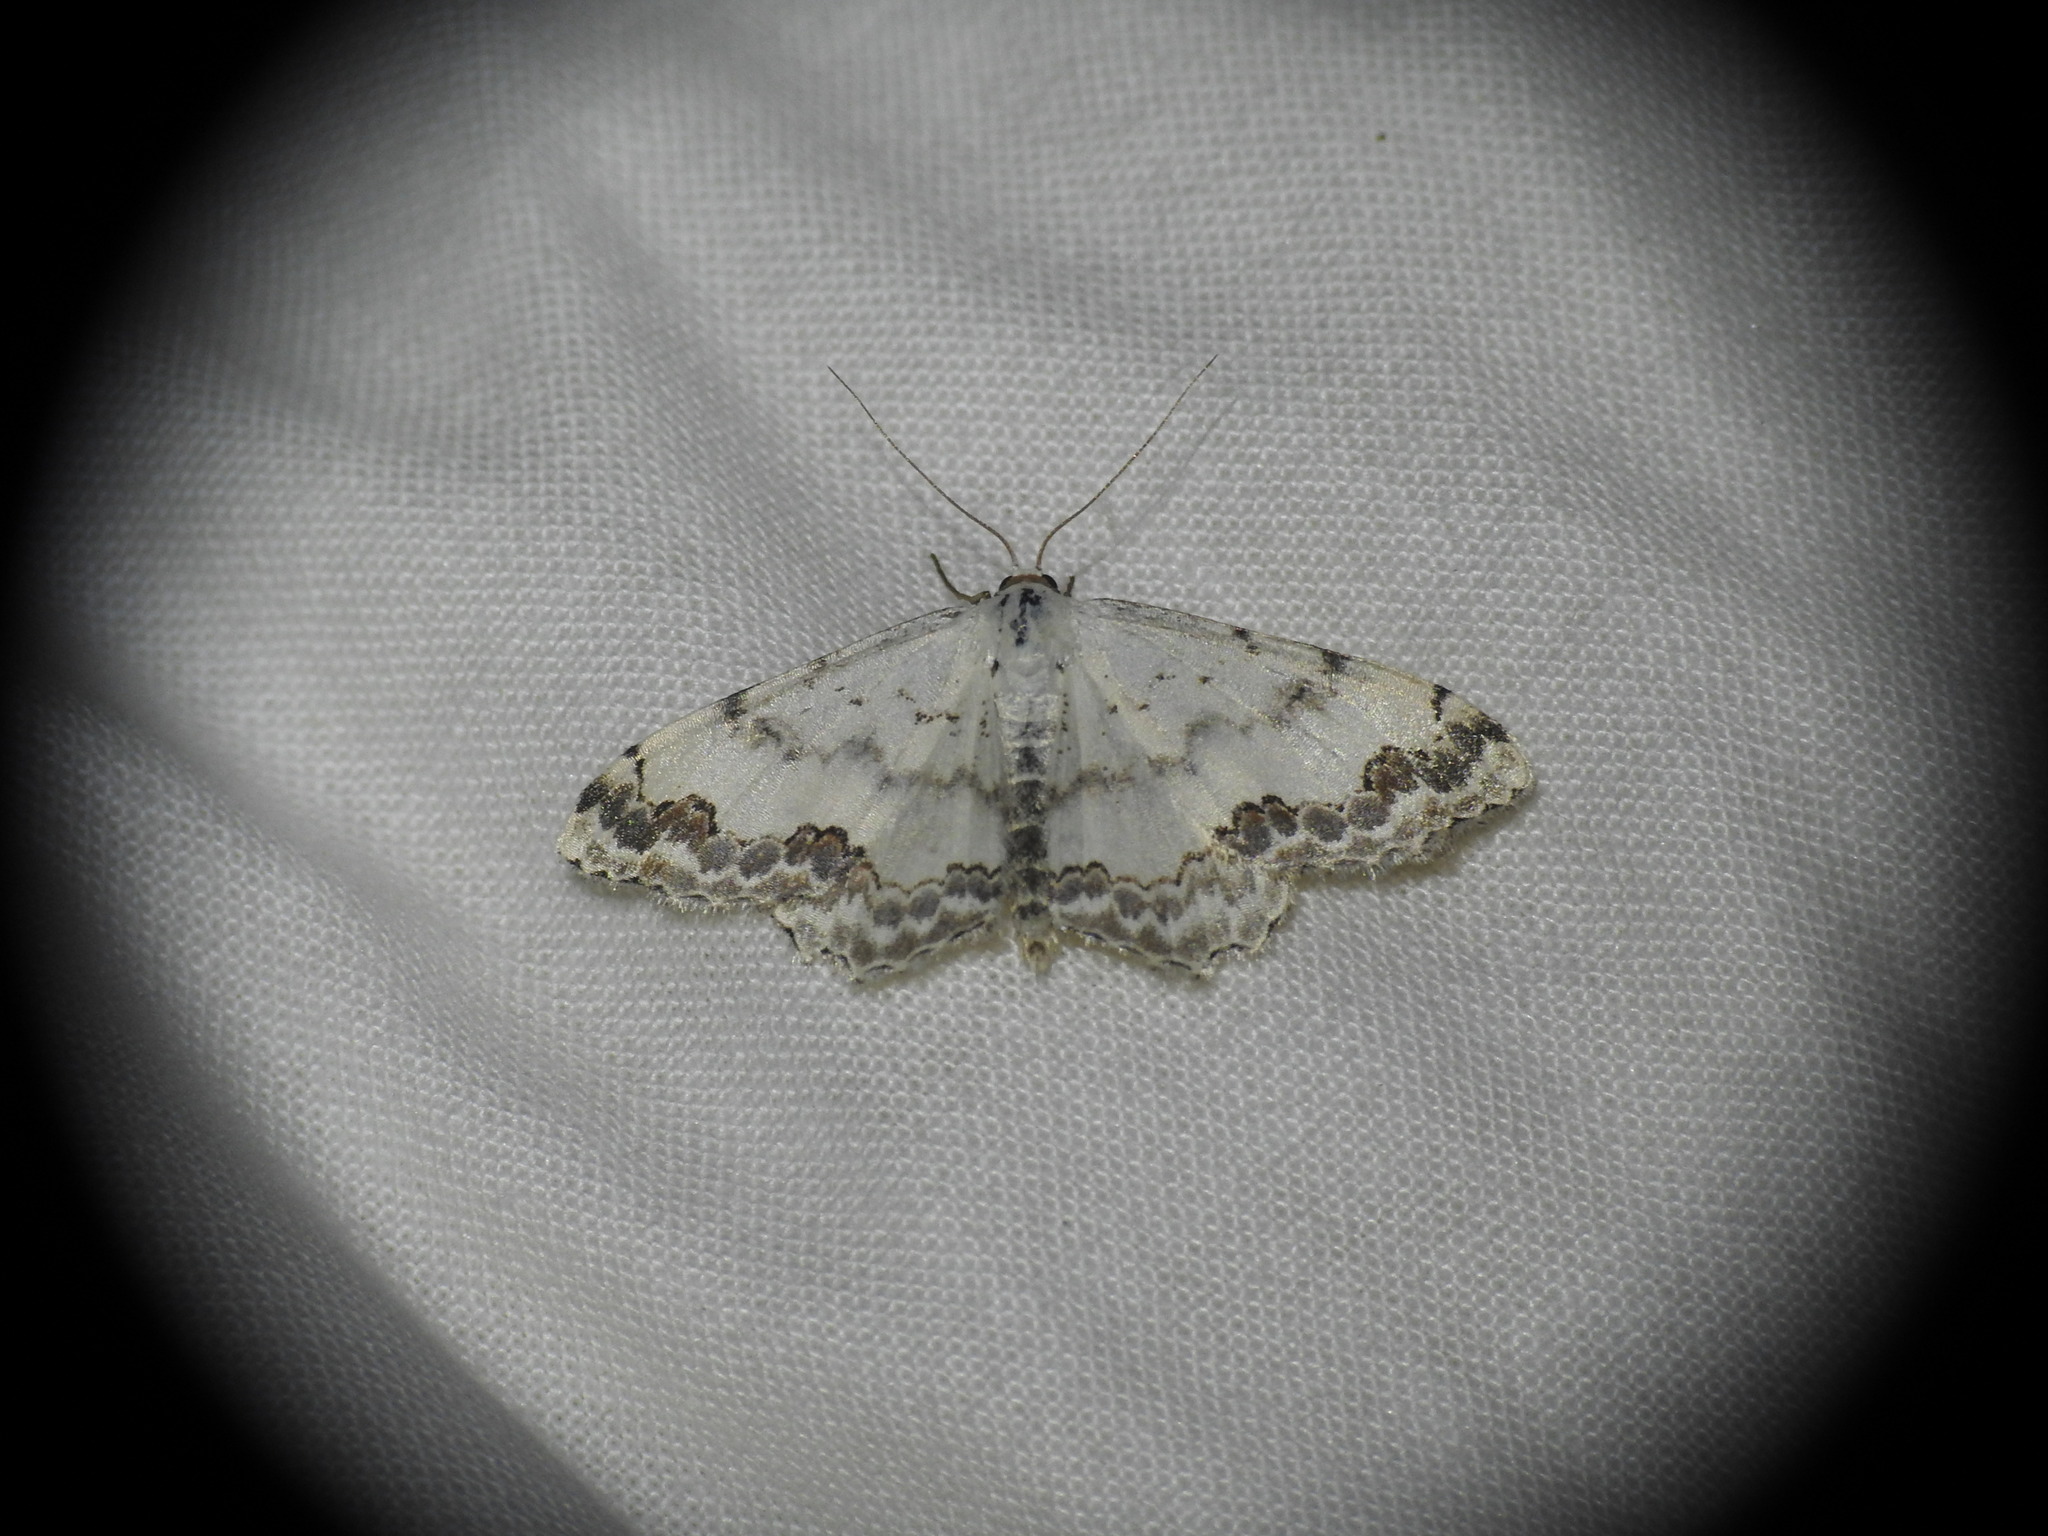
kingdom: Animalia
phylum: Arthropoda
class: Insecta
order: Lepidoptera
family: Geometridae
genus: Scopula
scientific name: Scopula decorata
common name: Middle lace border
